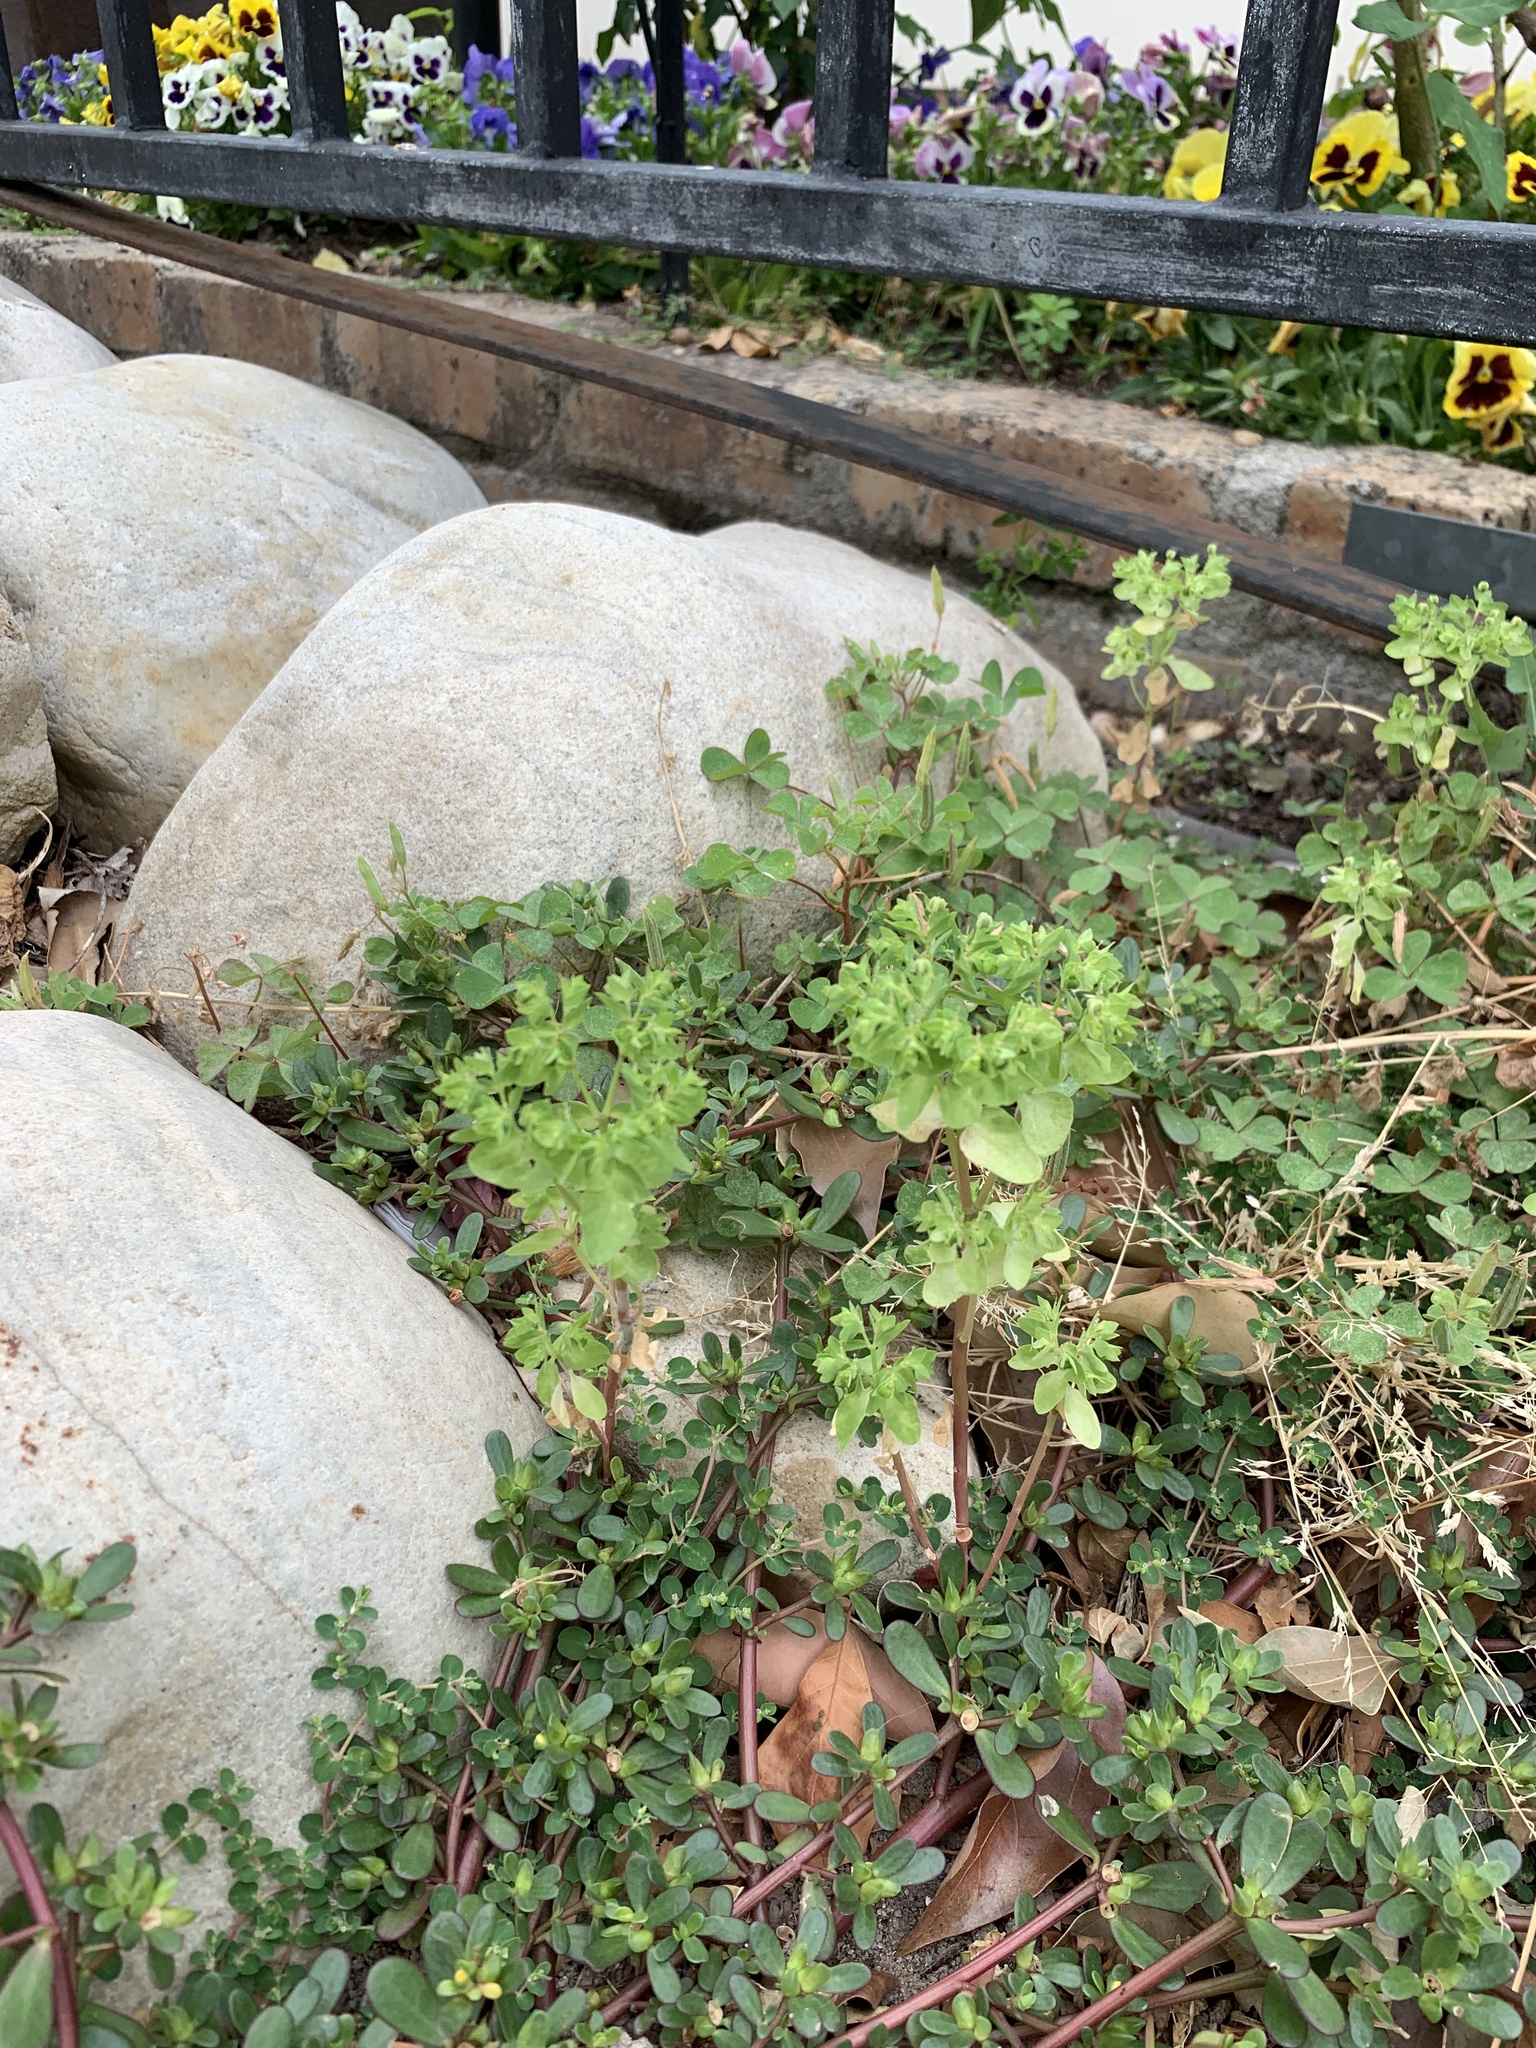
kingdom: Plantae
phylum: Tracheophyta
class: Magnoliopsida
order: Malpighiales
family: Euphorbiaceae
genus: Euphorbia
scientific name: Euphorbia peplus
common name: Petty spurge
